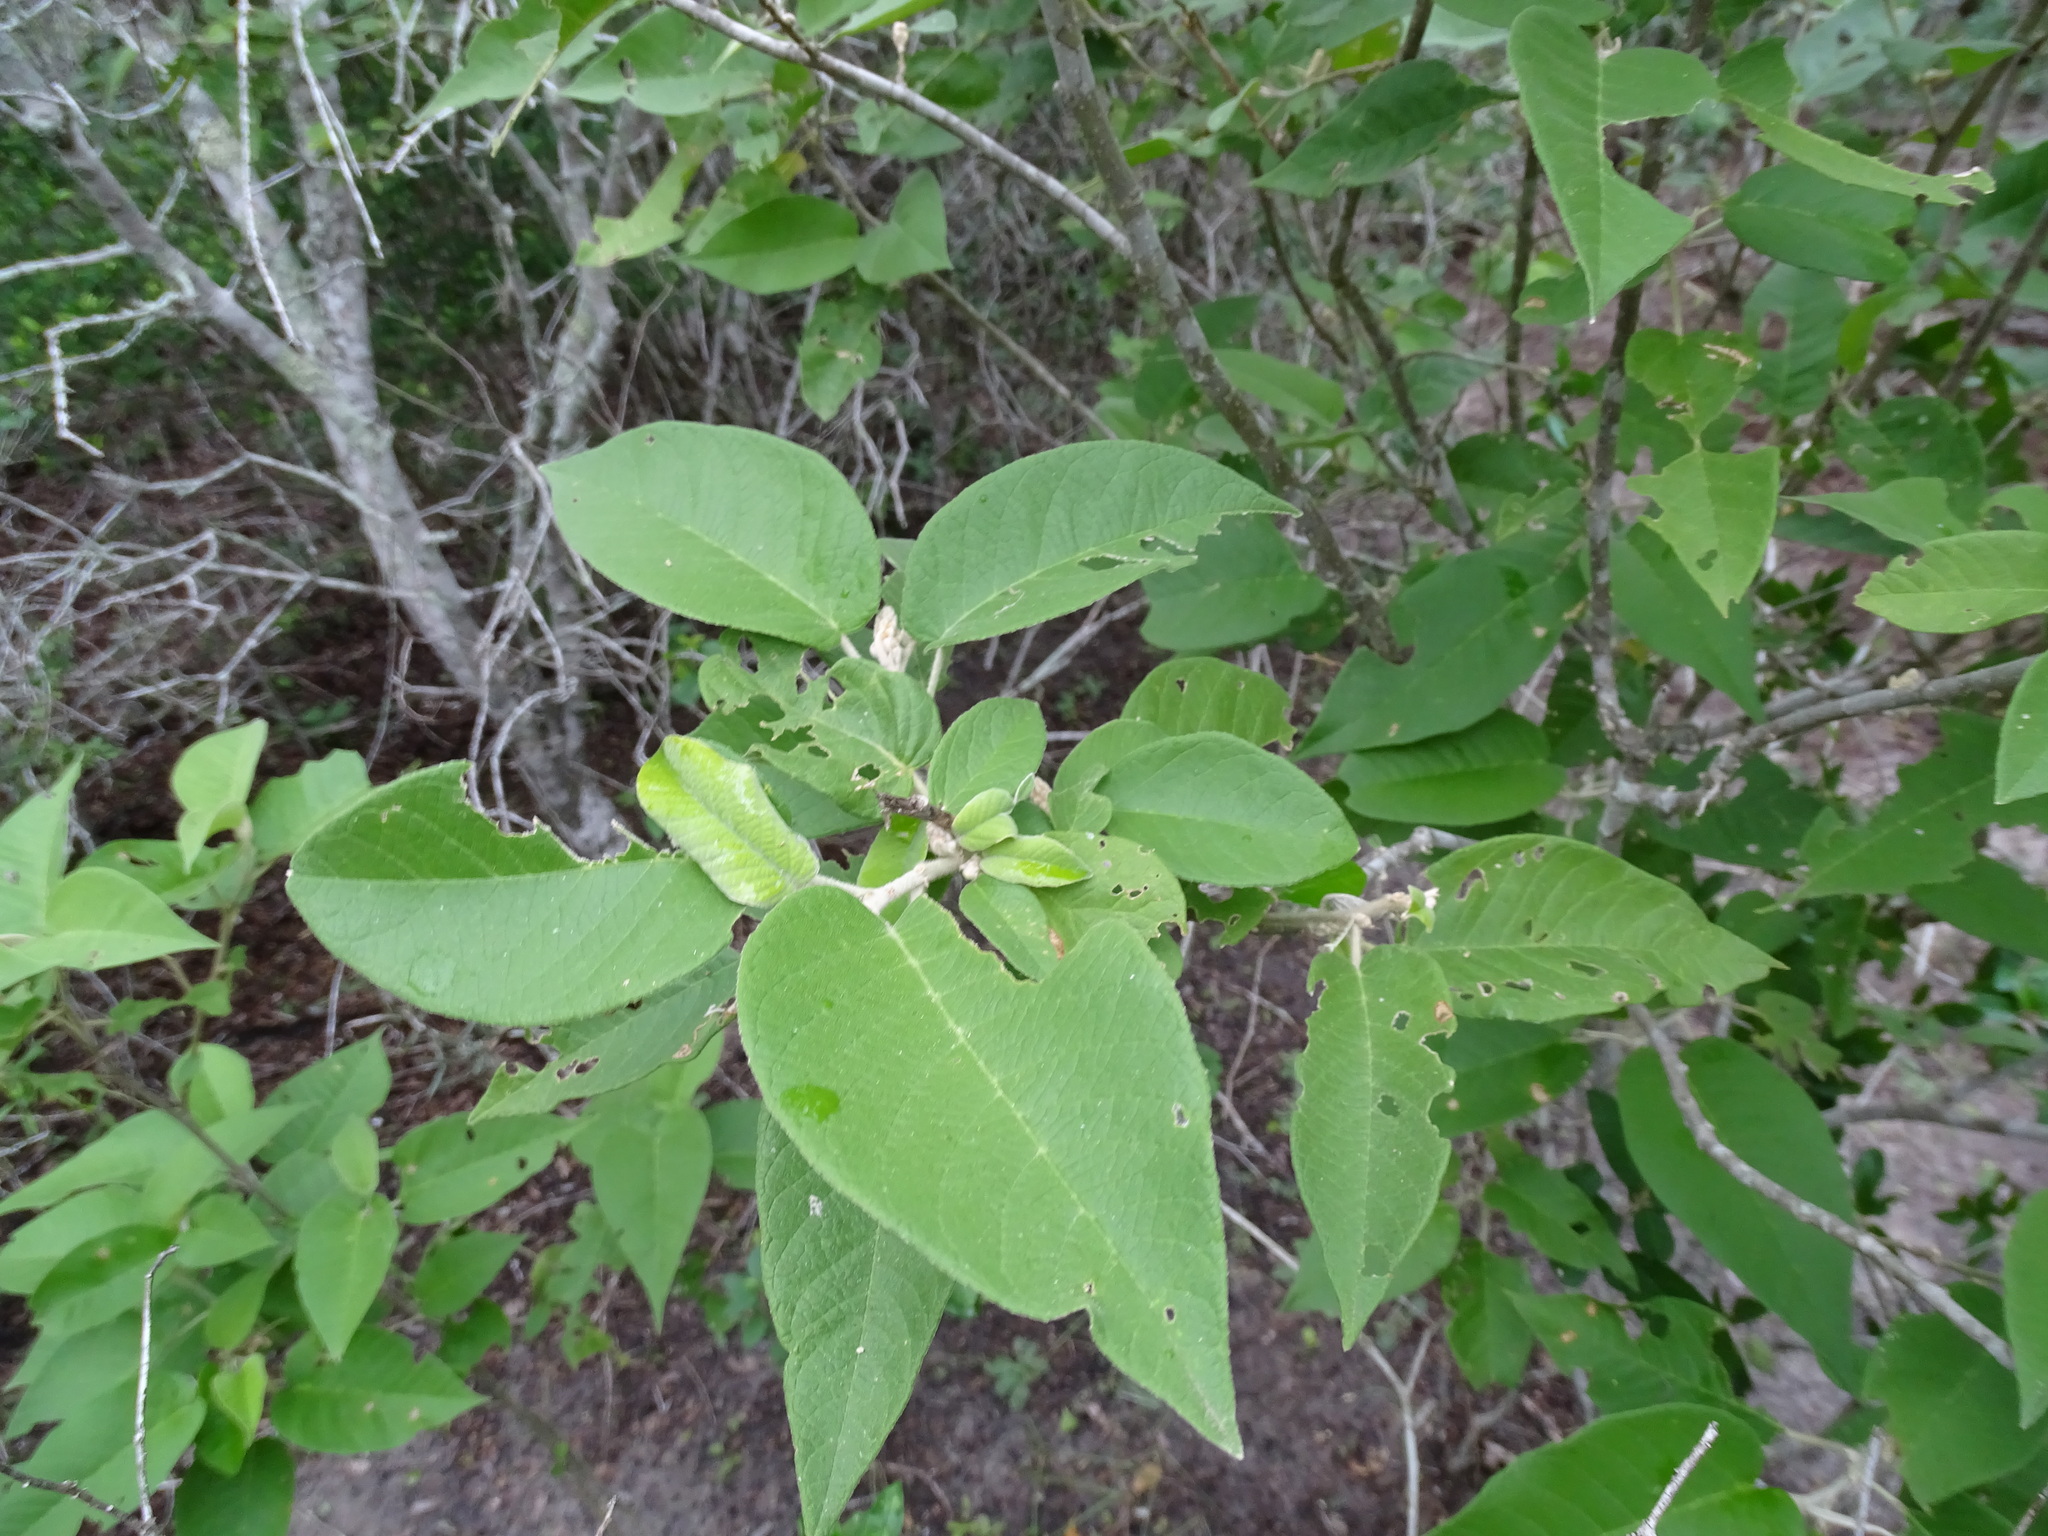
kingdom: Plantae
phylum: Tracheophyta
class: Magnoliopsida
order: Malpighiales
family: Euphorbiaceae
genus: Croton
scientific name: Croton axillaris
